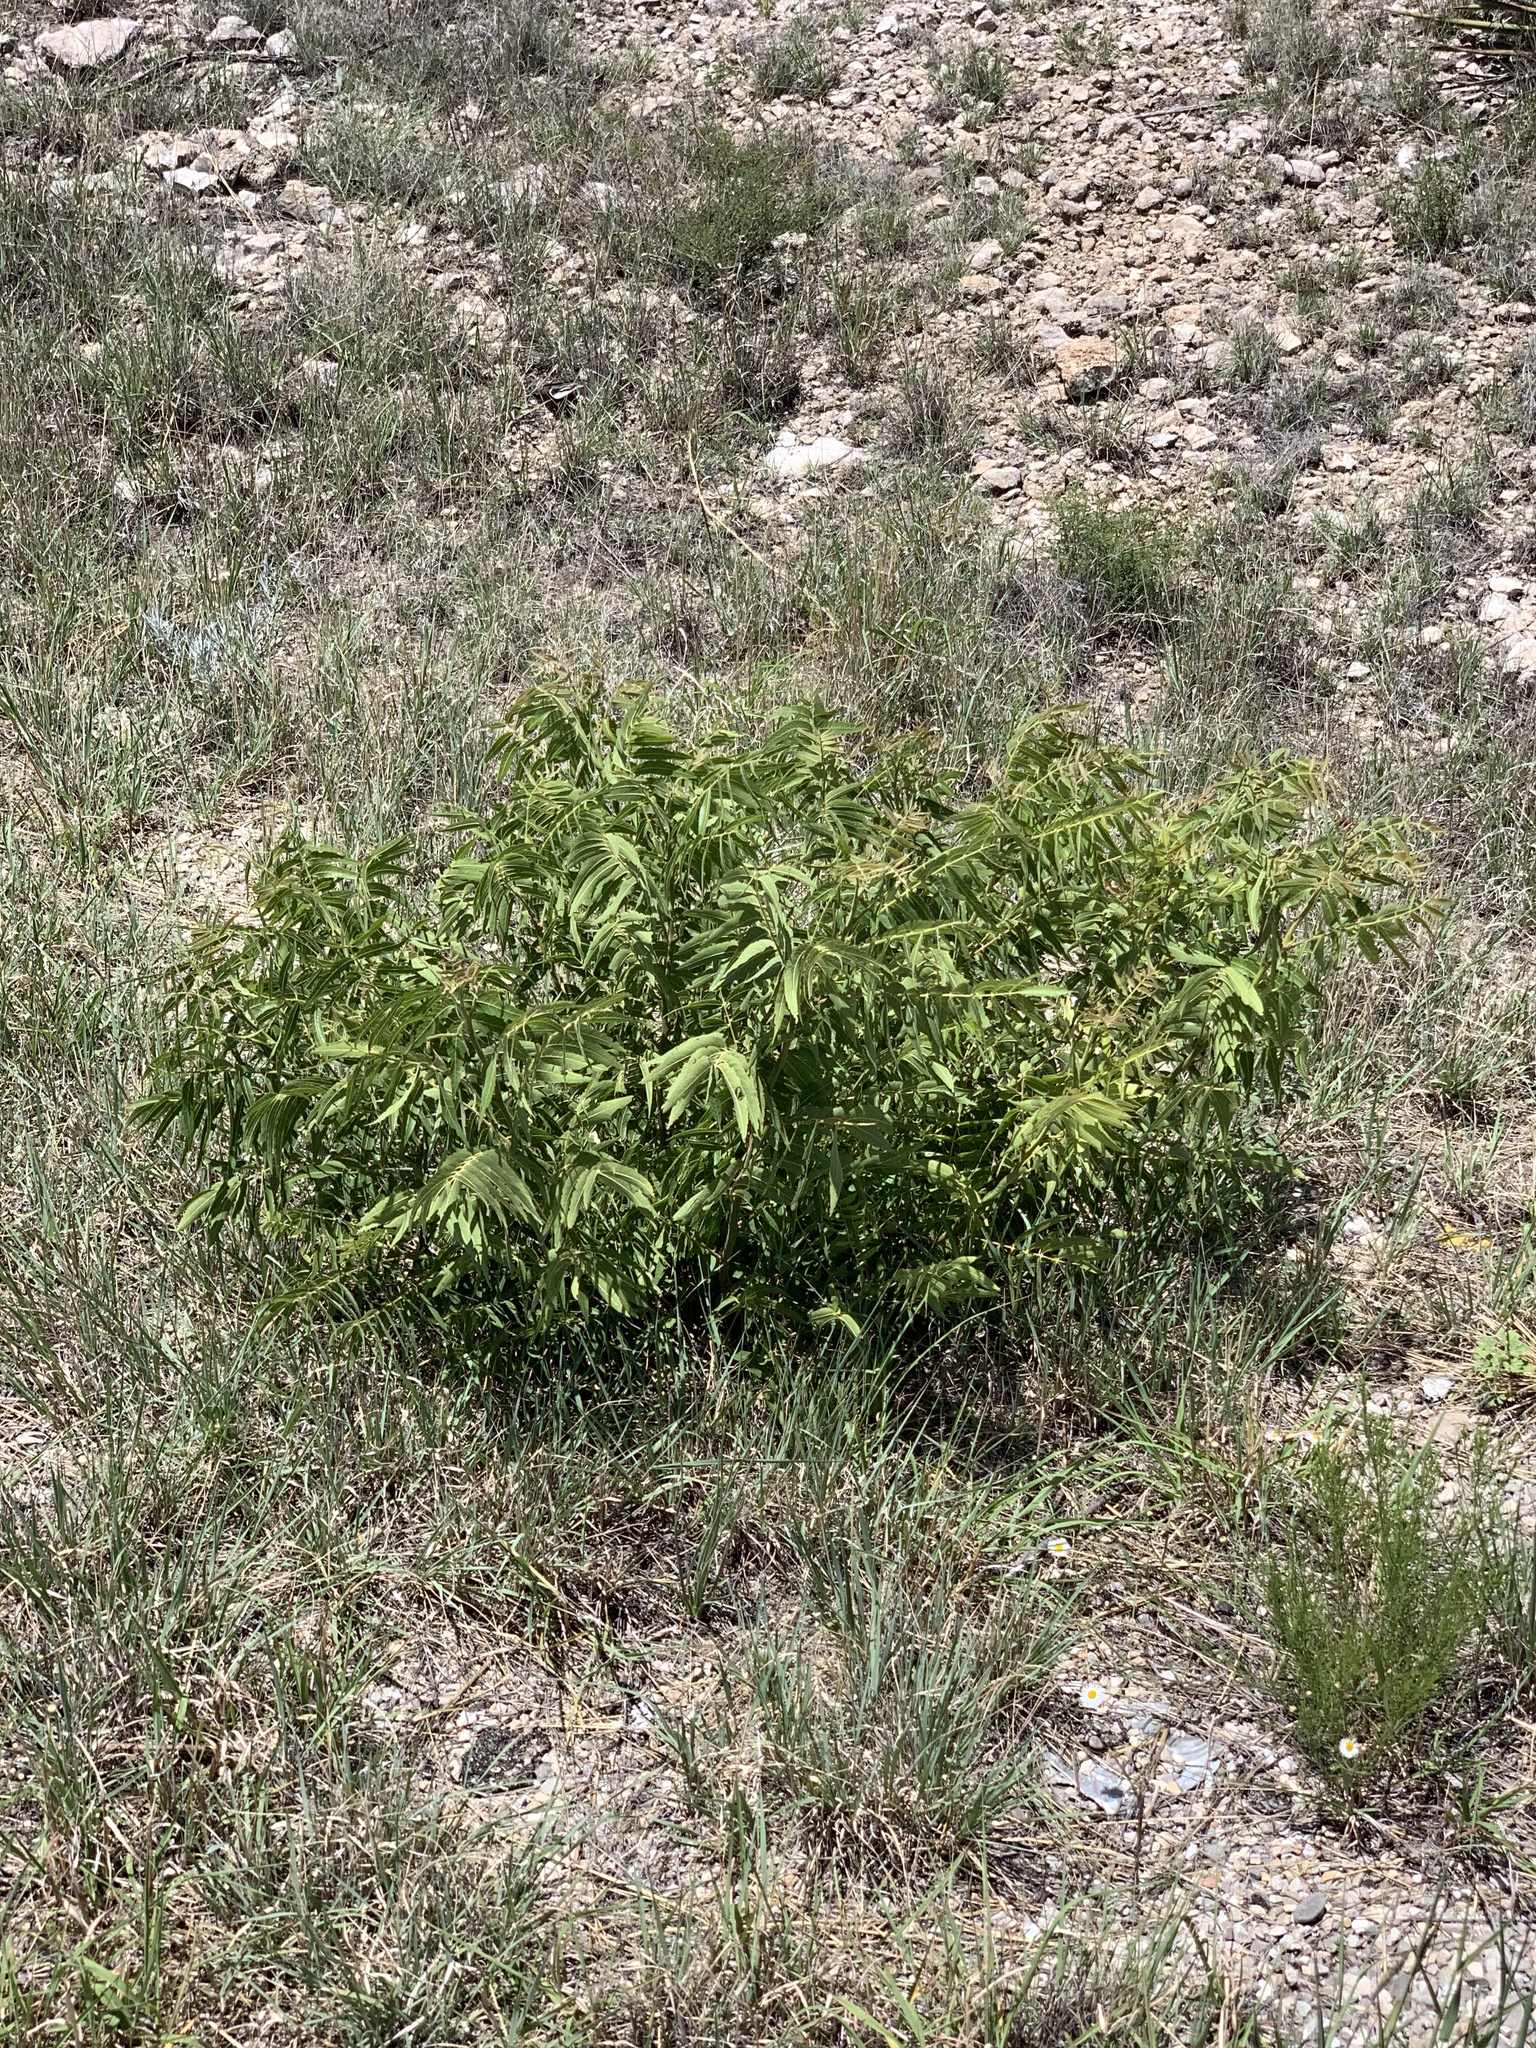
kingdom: Plantae
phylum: Tracheophyta
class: Magnoliopsida
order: Sapindales
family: Sapindaceae
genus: Sapindus
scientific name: Sapindus drummondii
